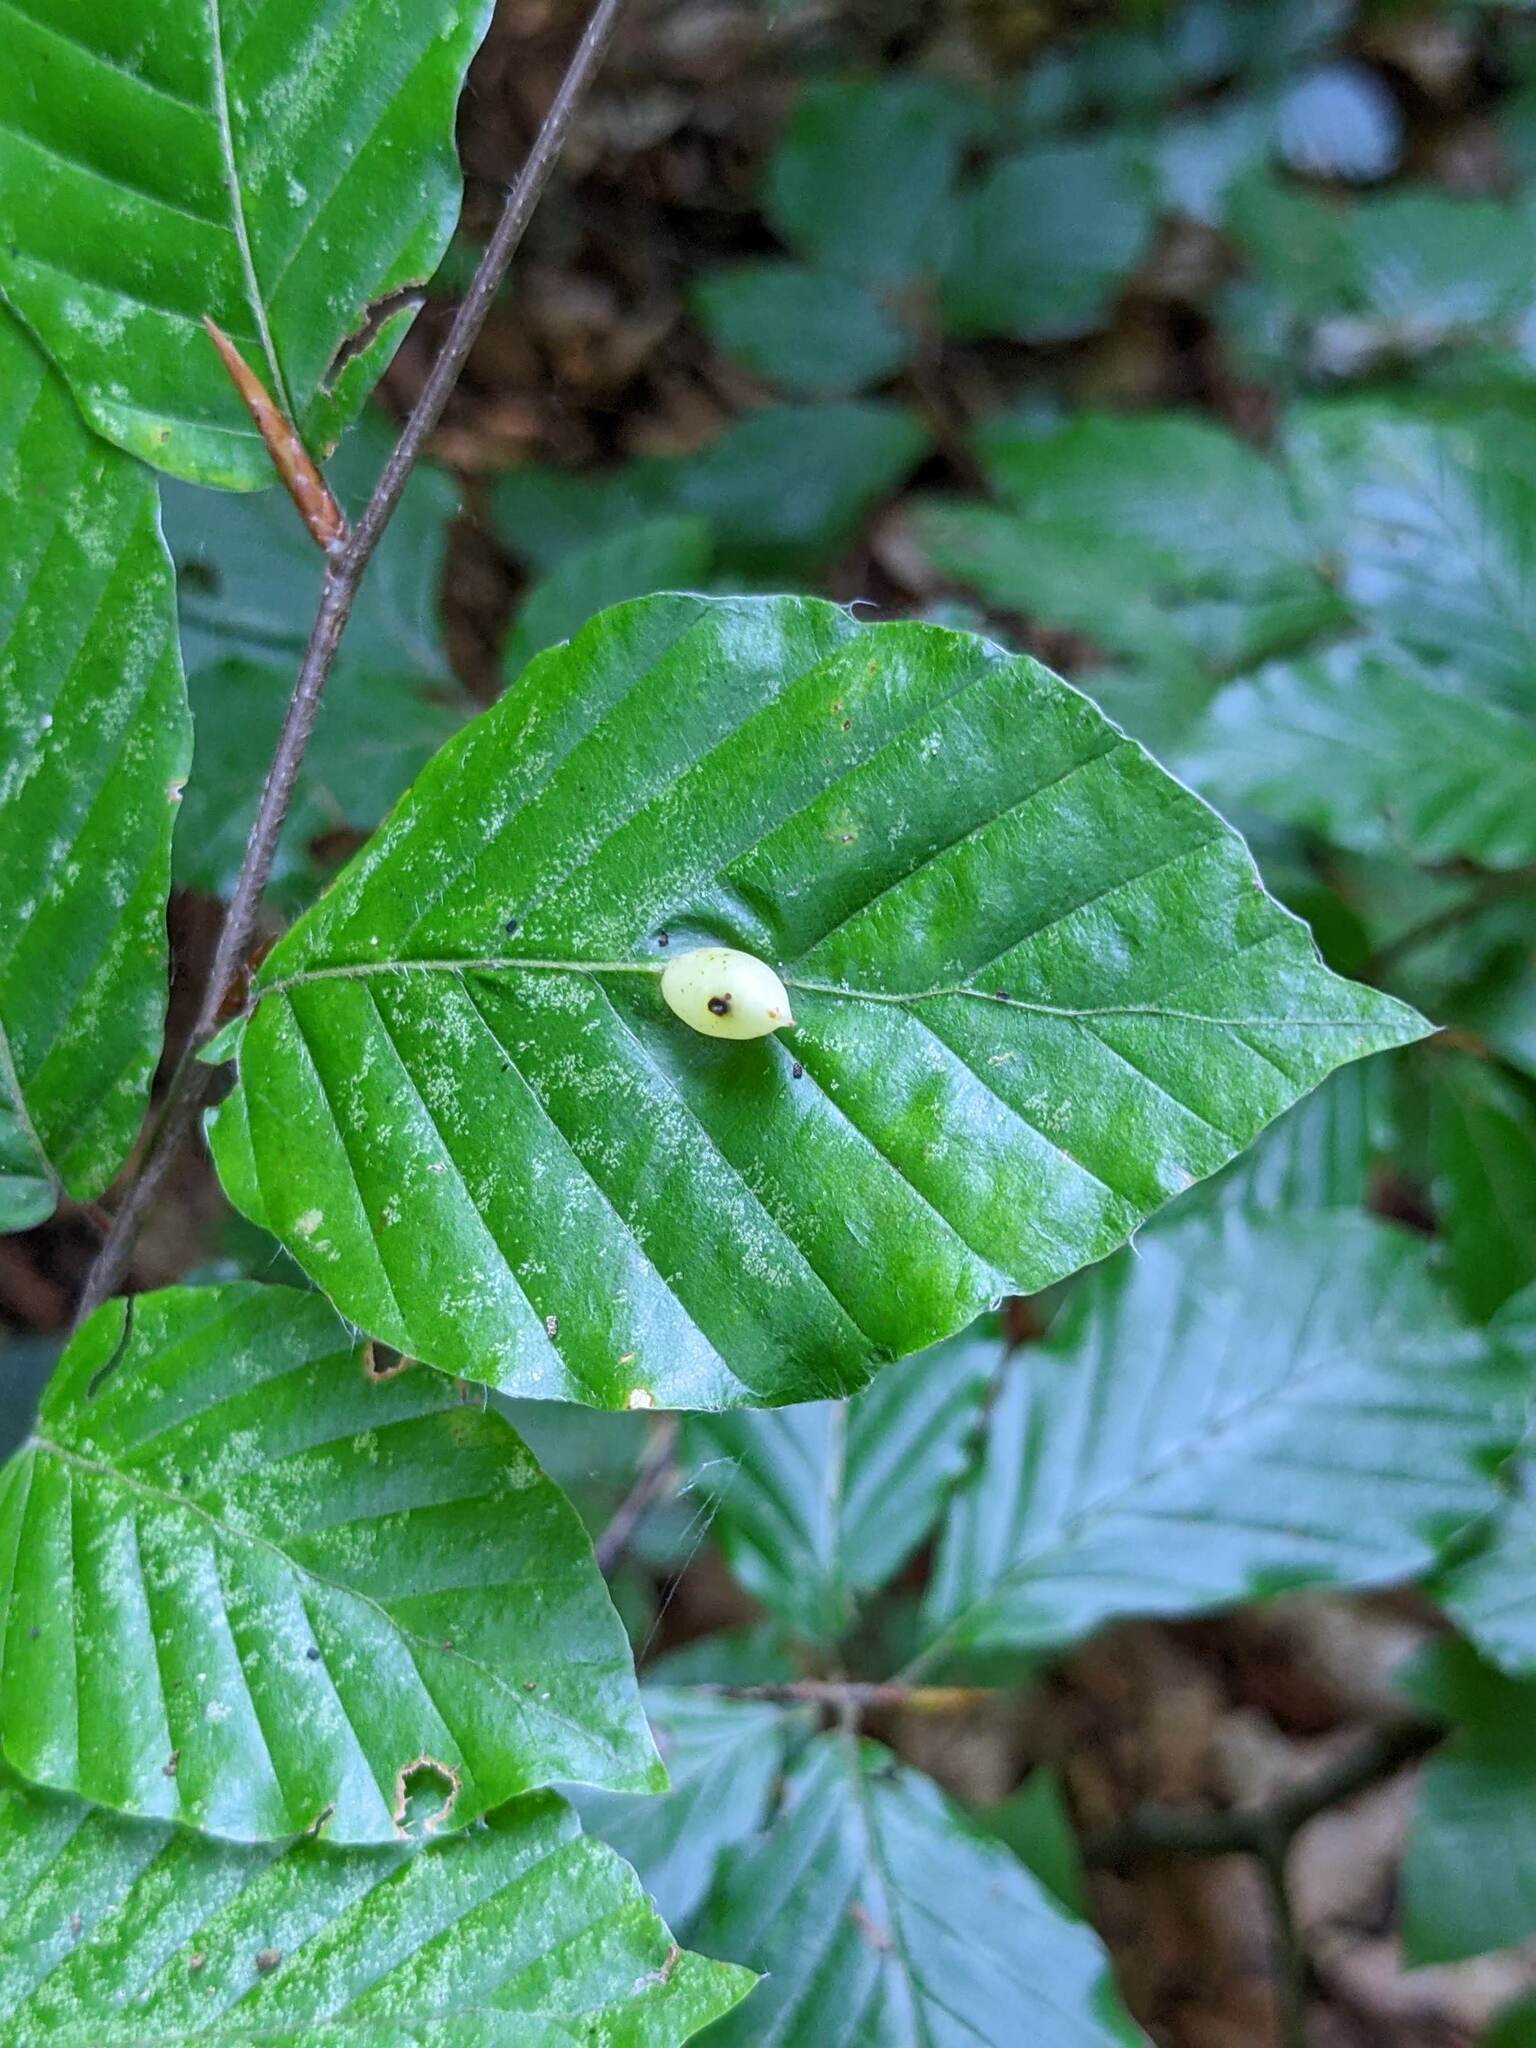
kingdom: Animalia
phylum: Arthropoda
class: Insecta
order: Diptera
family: Cecidomyiidae
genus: Mikiola
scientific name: Mikiola fagi
